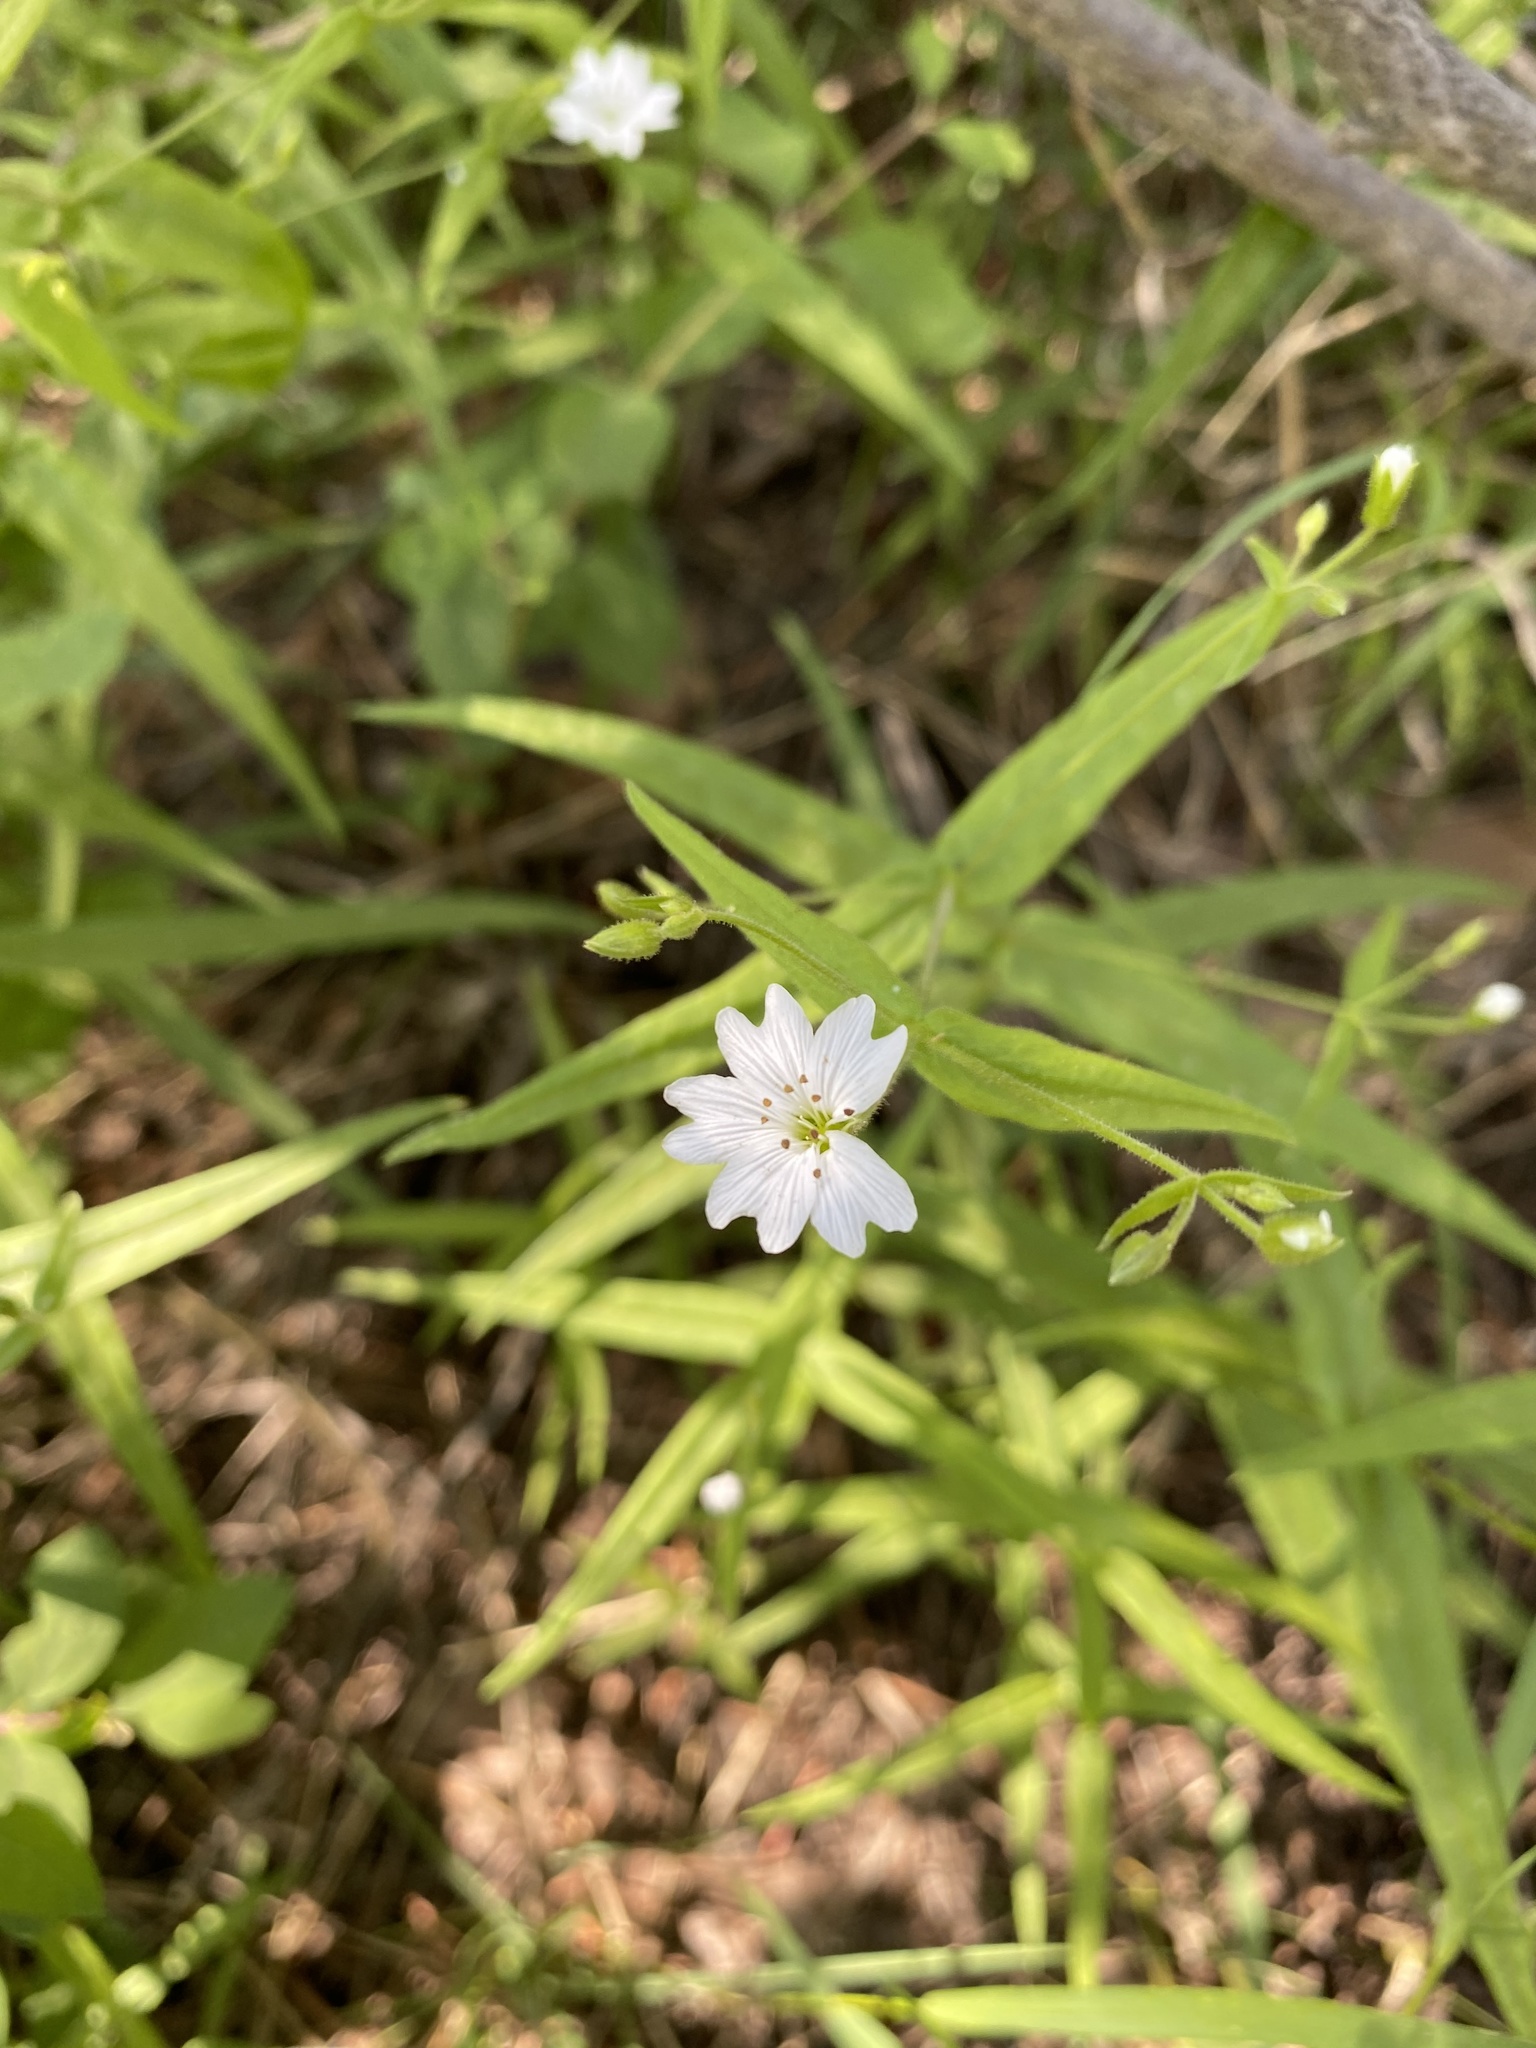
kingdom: Plantae
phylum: Tracheophyta
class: Magnoliopsida
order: Caryophyllales
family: Caryophyllaceae
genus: Schizotechium
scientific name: Schizotechium jamesianum
